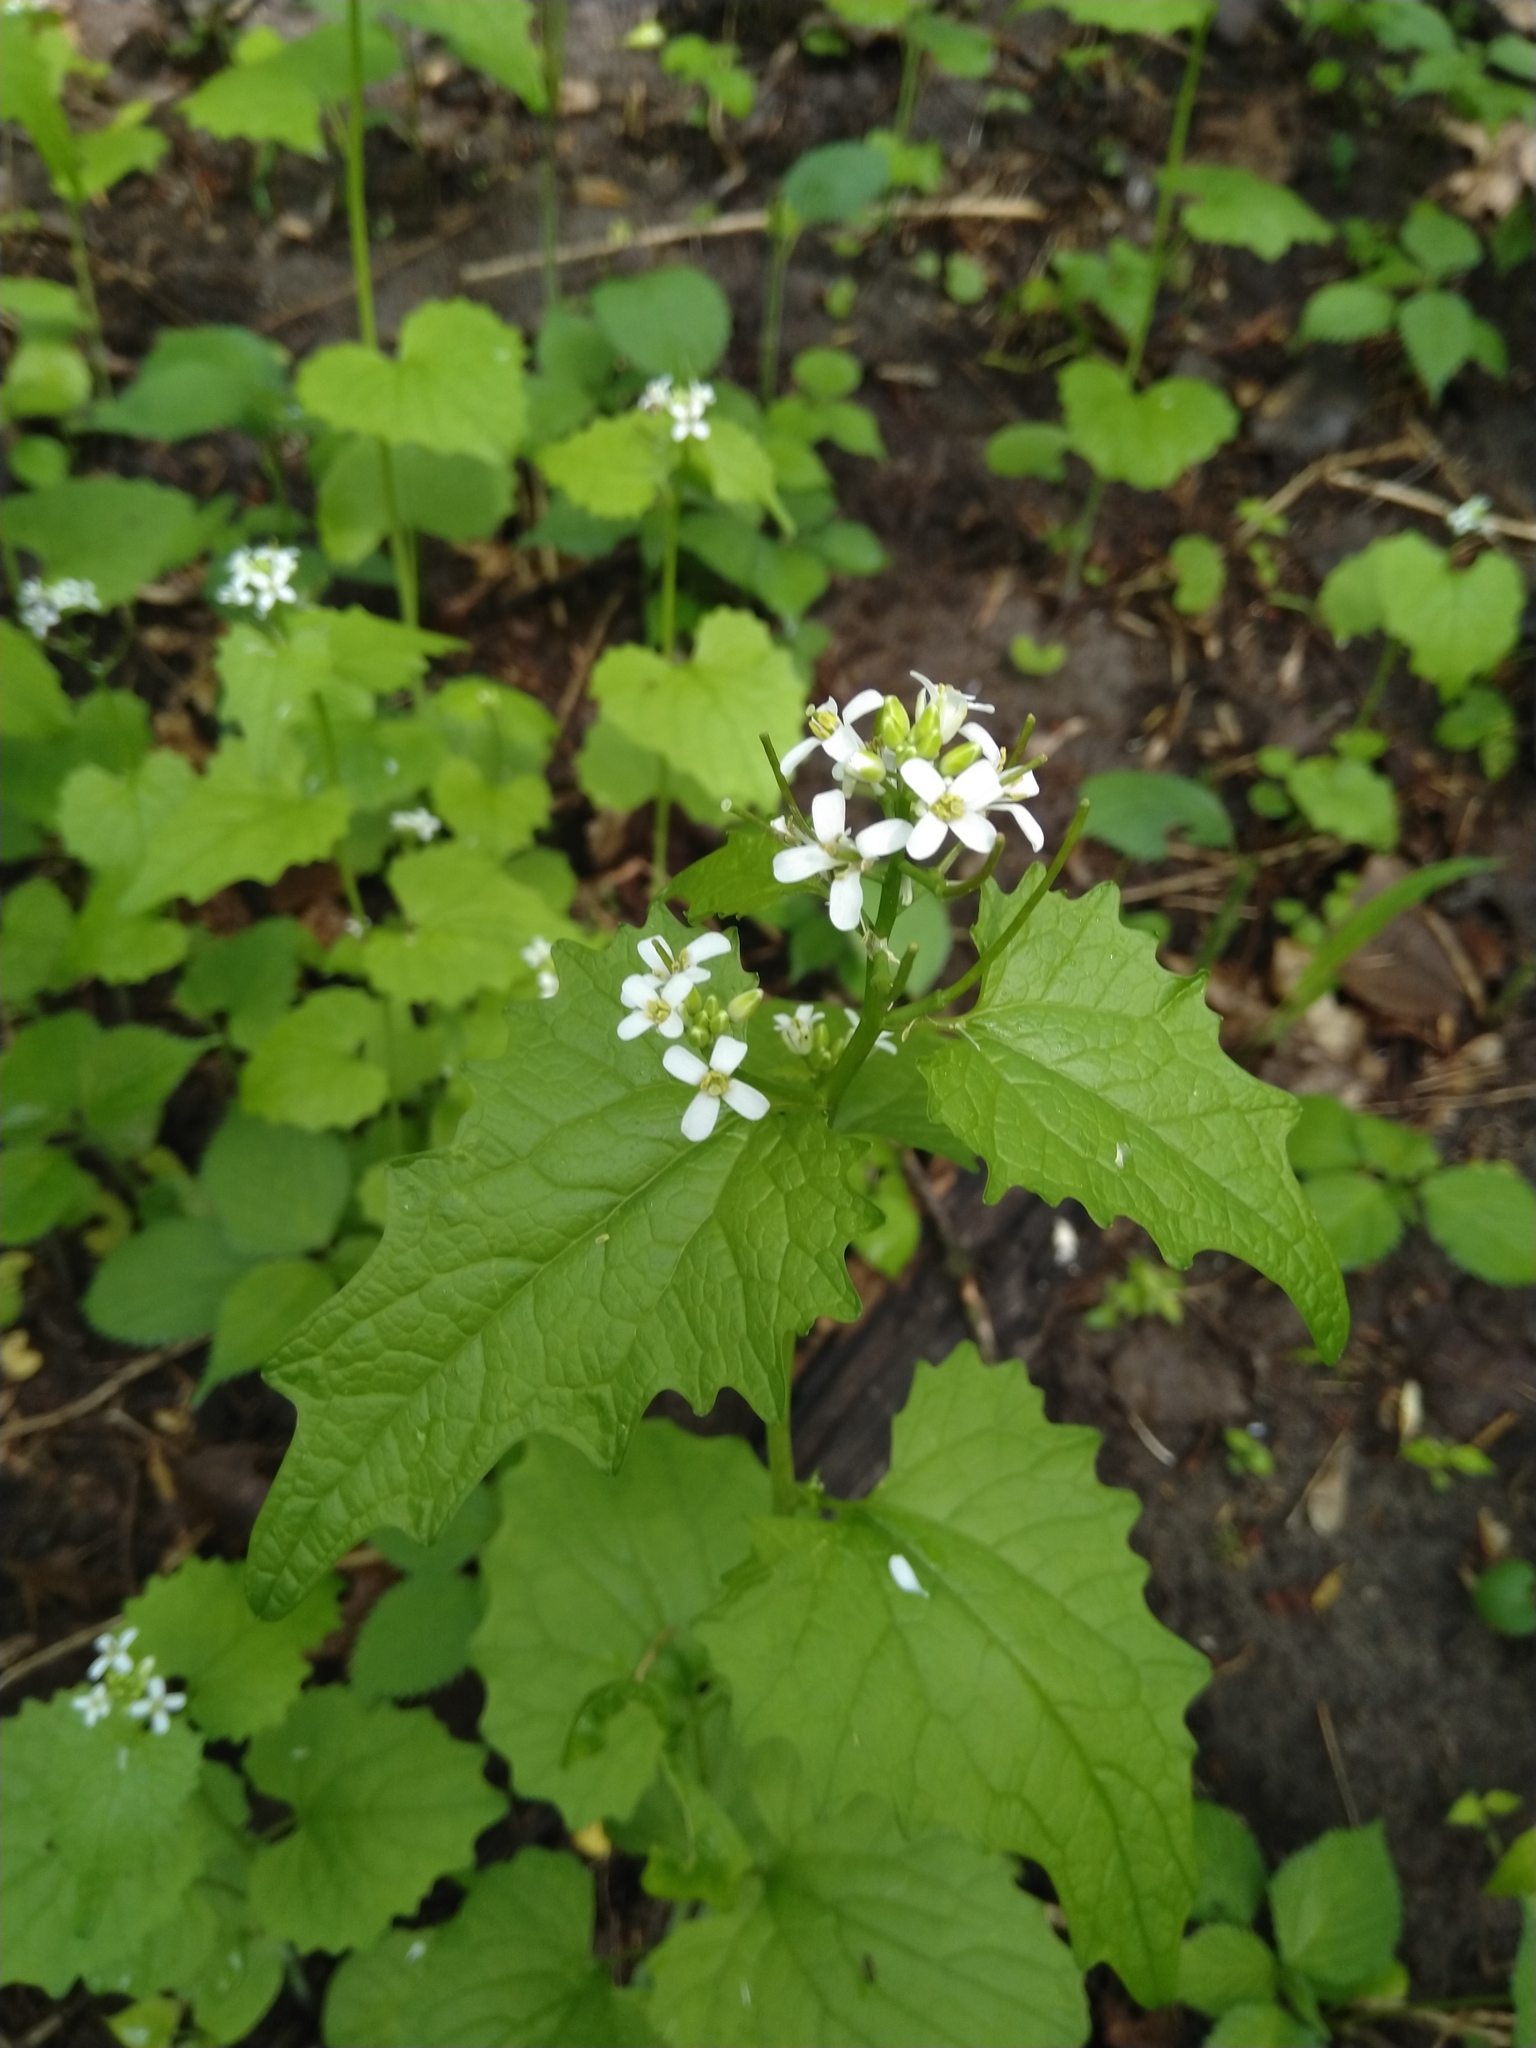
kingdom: Plantae
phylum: Tracheophyta
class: Magnoliopsida
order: Brassicales
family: Brassicaceae
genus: Alliaria
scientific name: Alliaria petiolata
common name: Garlic mustard
